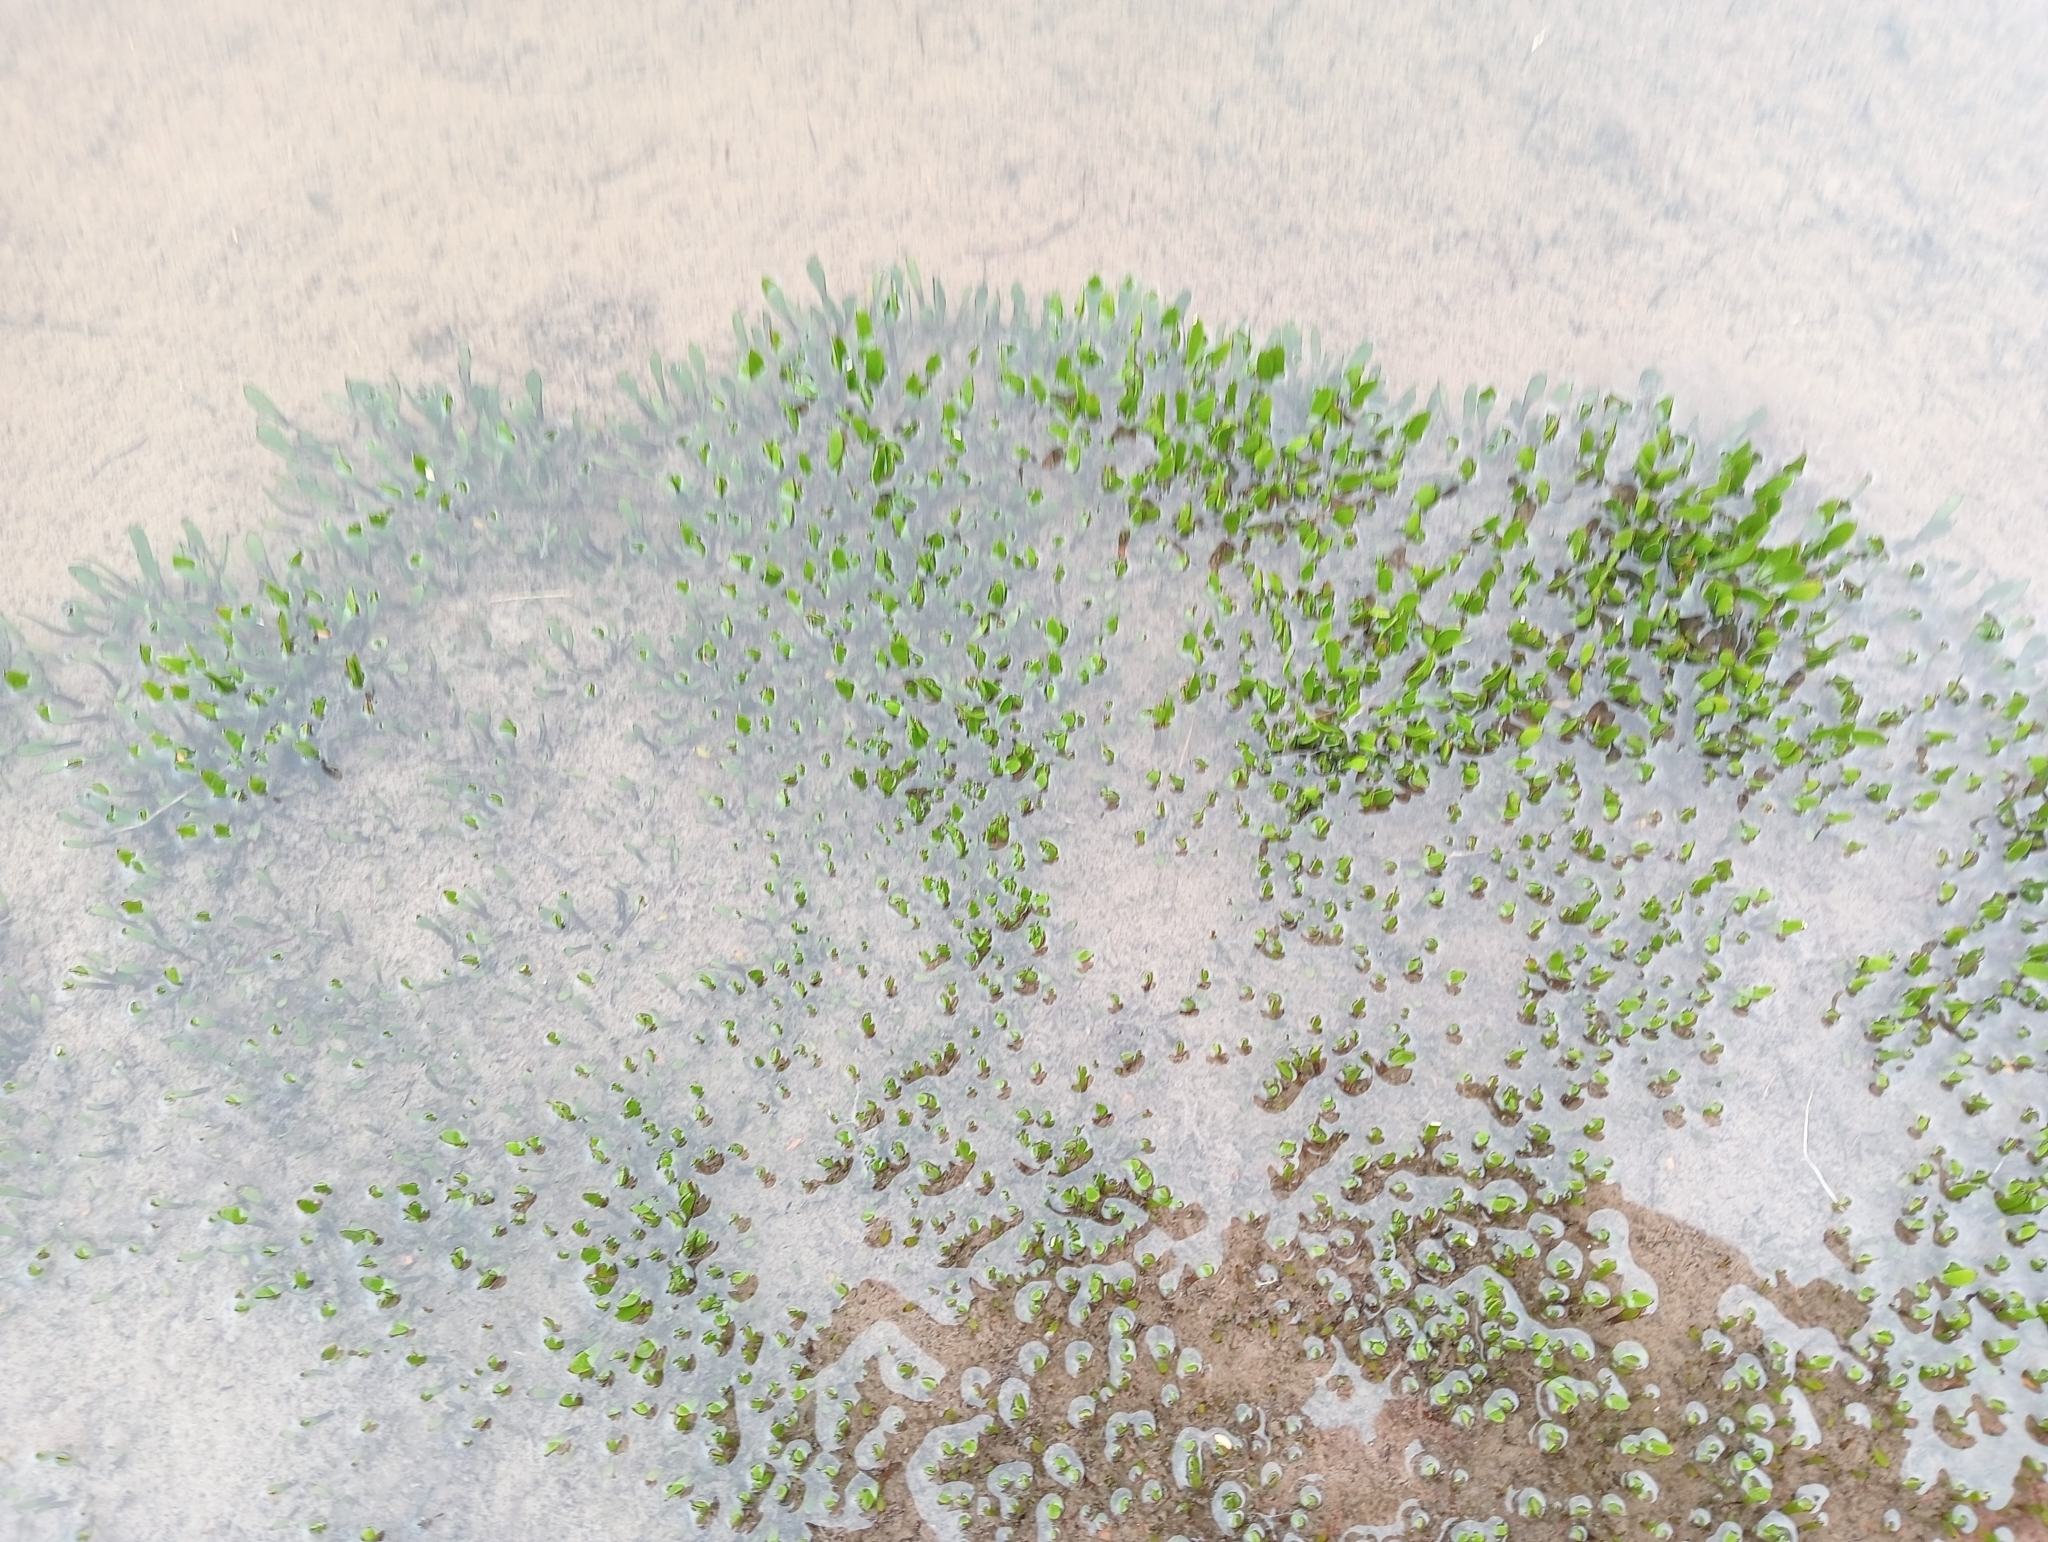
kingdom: Plantae
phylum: Tracheophyta
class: Magnoliopsida
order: Asterales
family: Menyanthaceae
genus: Liparophyllum
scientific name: Liparophyllum gunnii
